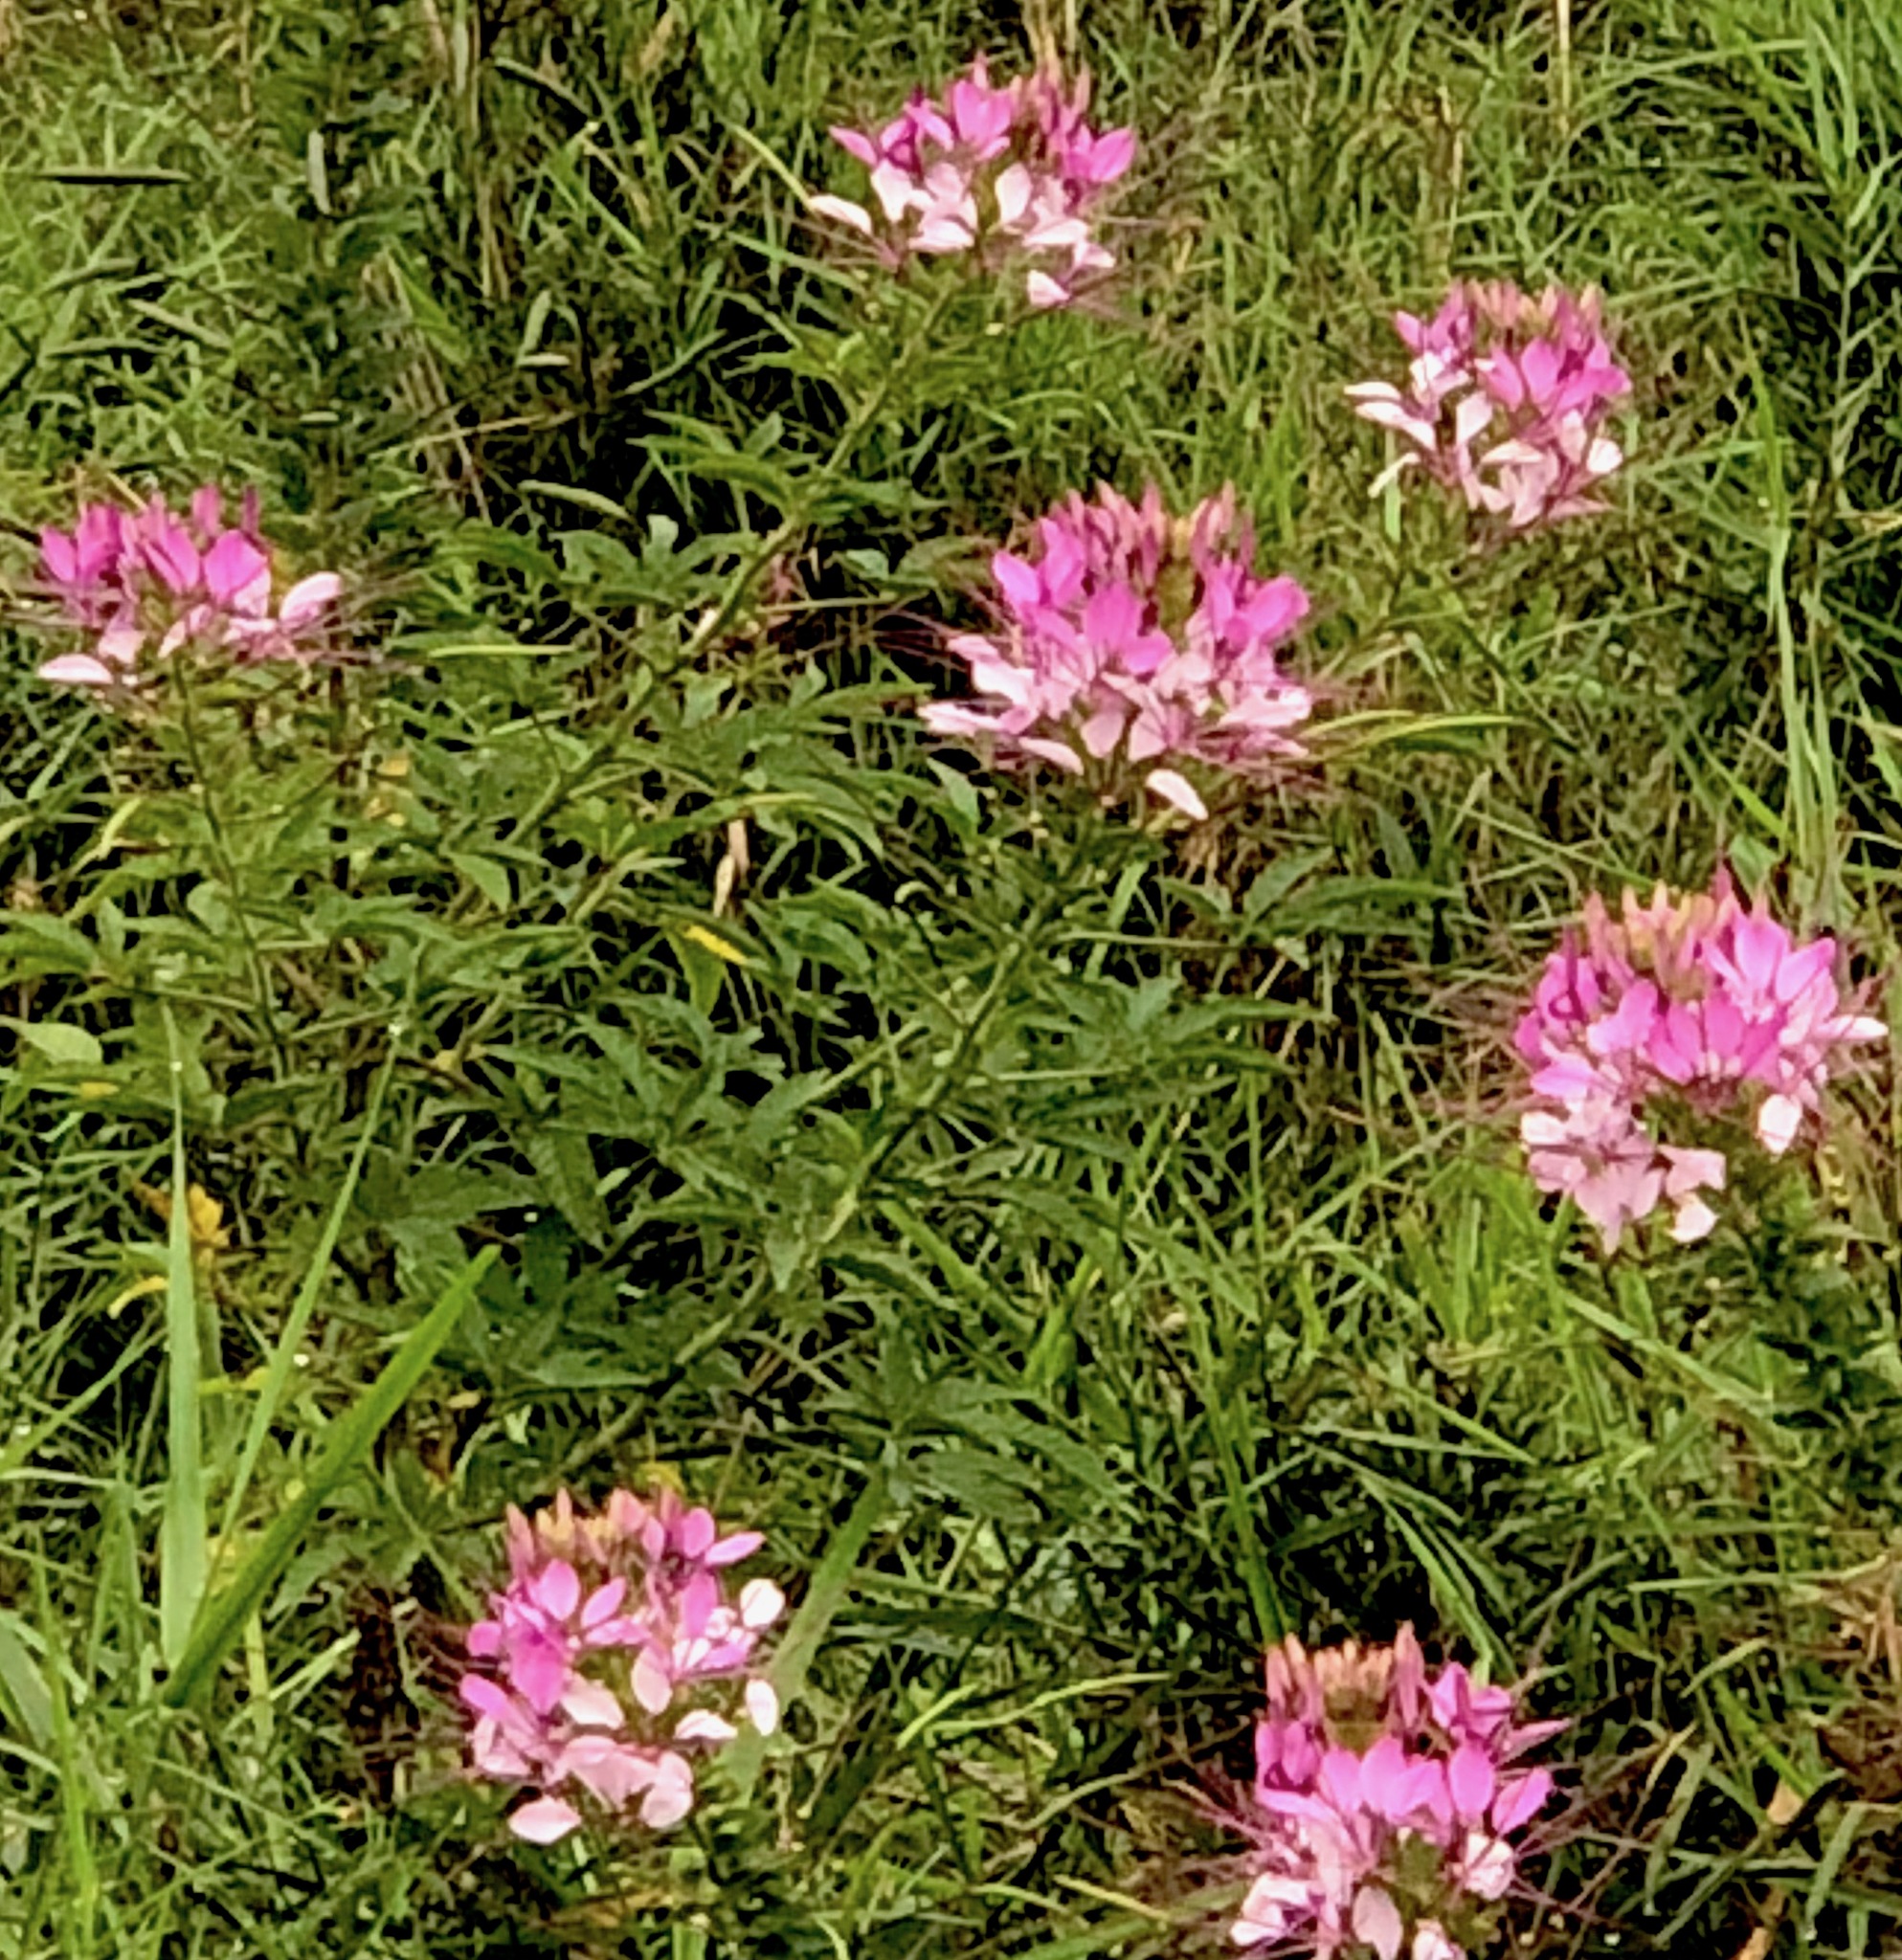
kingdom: Plantae
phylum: Tracheophyta
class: Magnoliopsida
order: Brassicales
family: Cleomaceae
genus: Tarenaya
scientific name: Tarenaya houtteana
